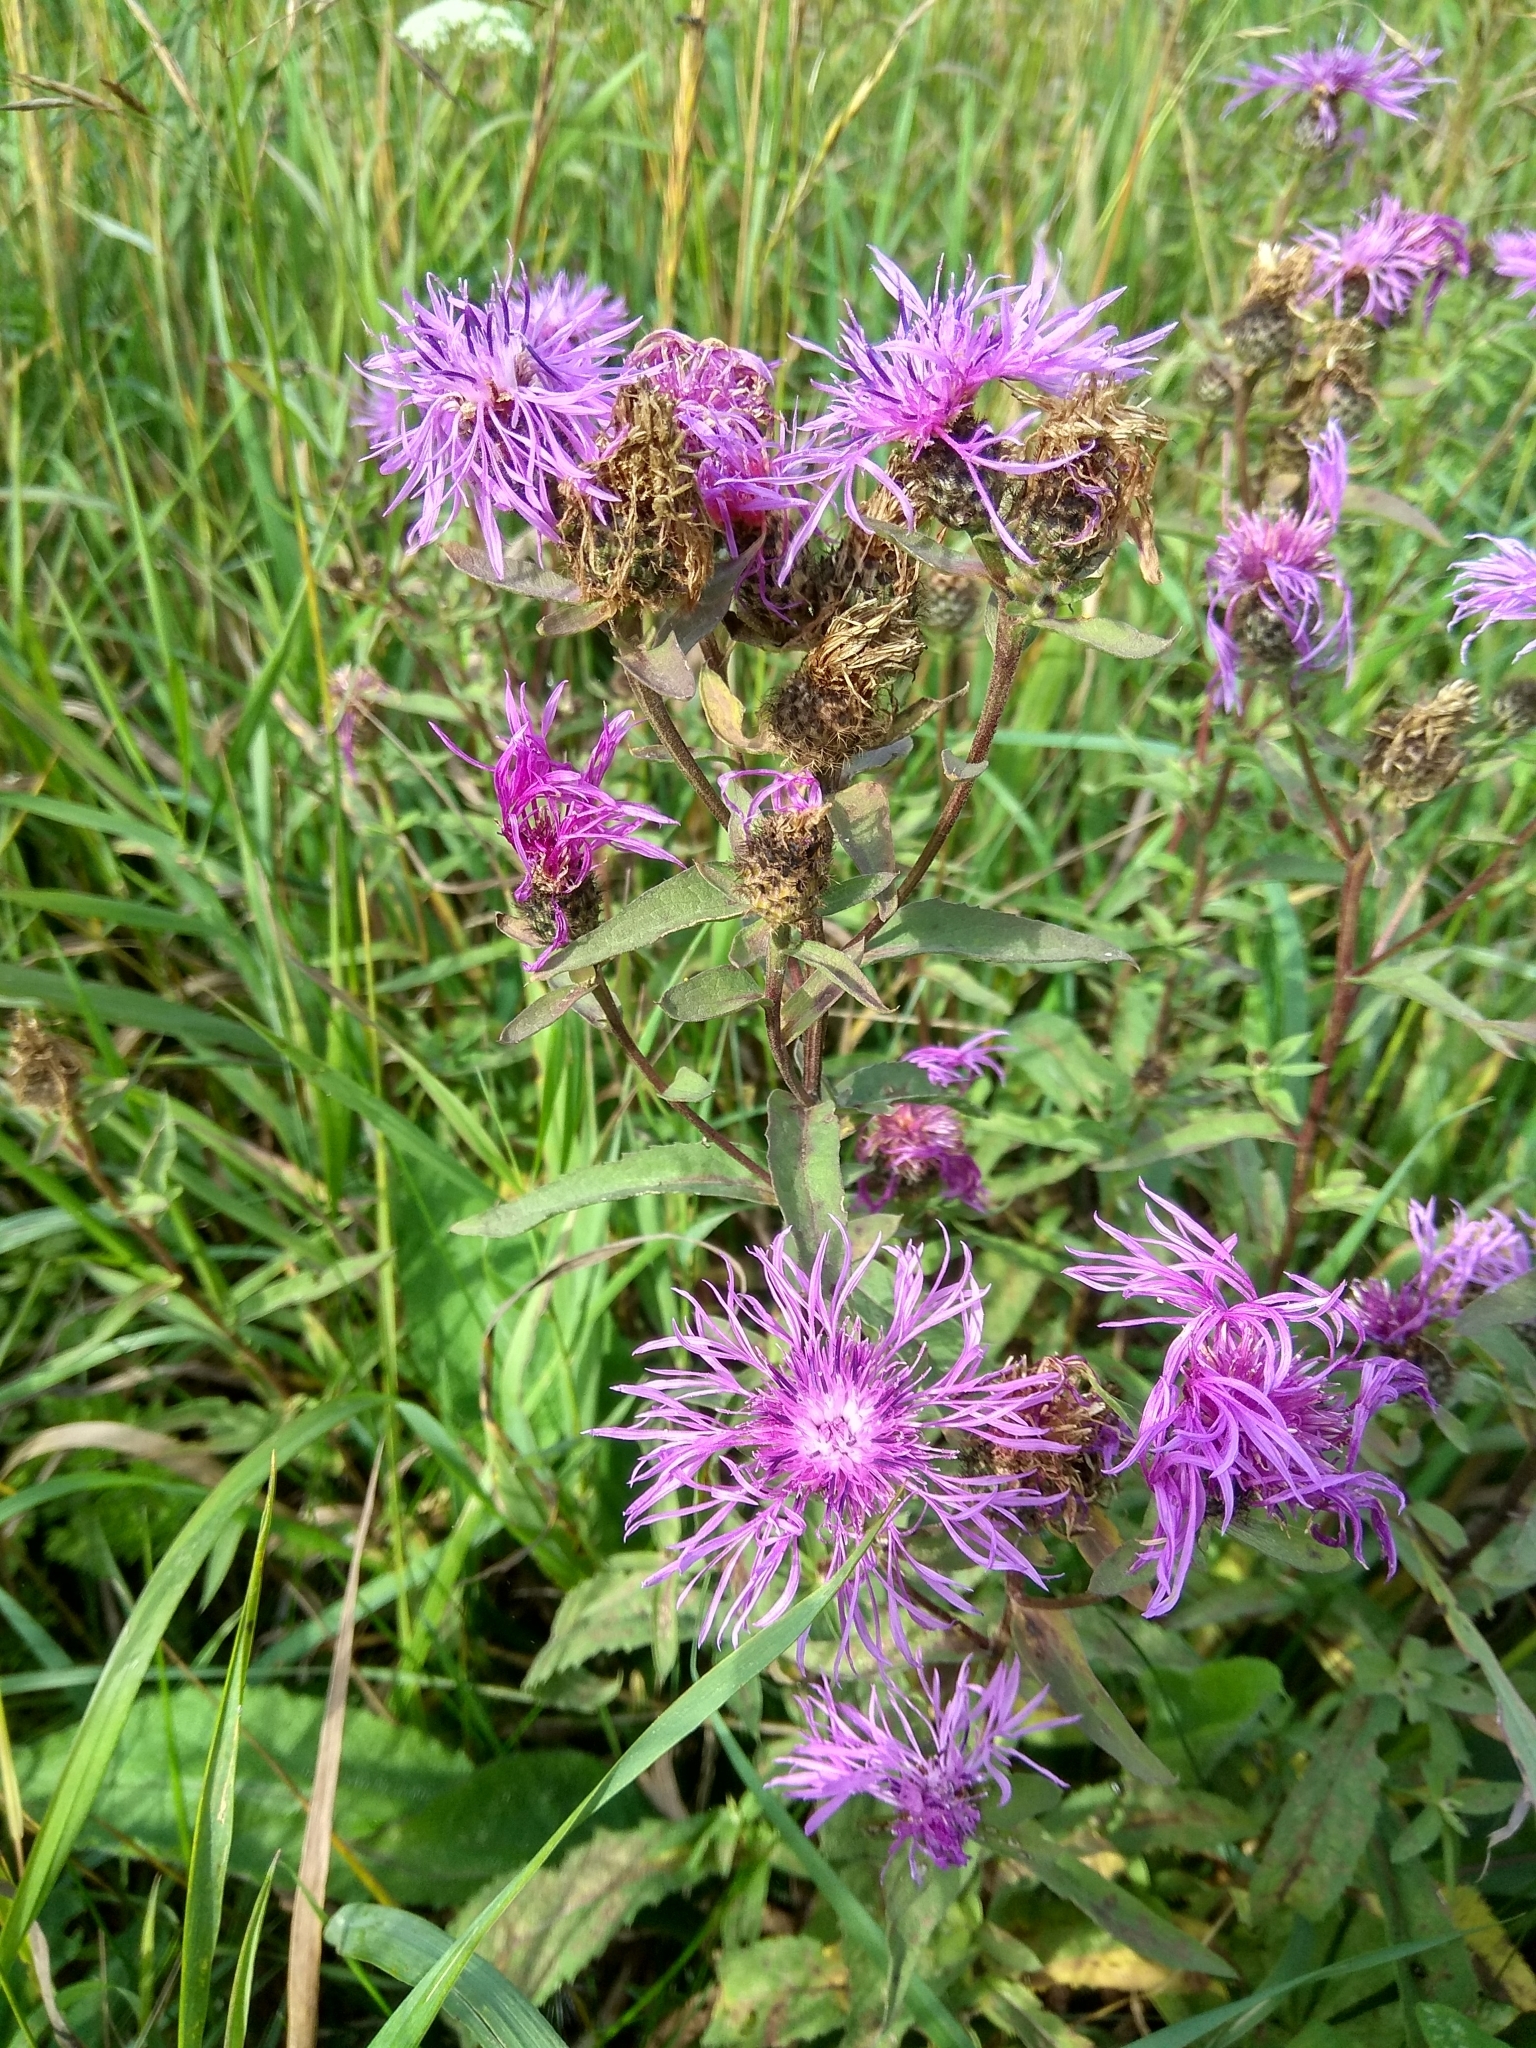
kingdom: Plantae
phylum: Tracheophyta
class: Magnoliopsida
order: Asterales
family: Asteraceae
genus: Centaurea
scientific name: Centaurea phrygia
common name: Wig knapweed
